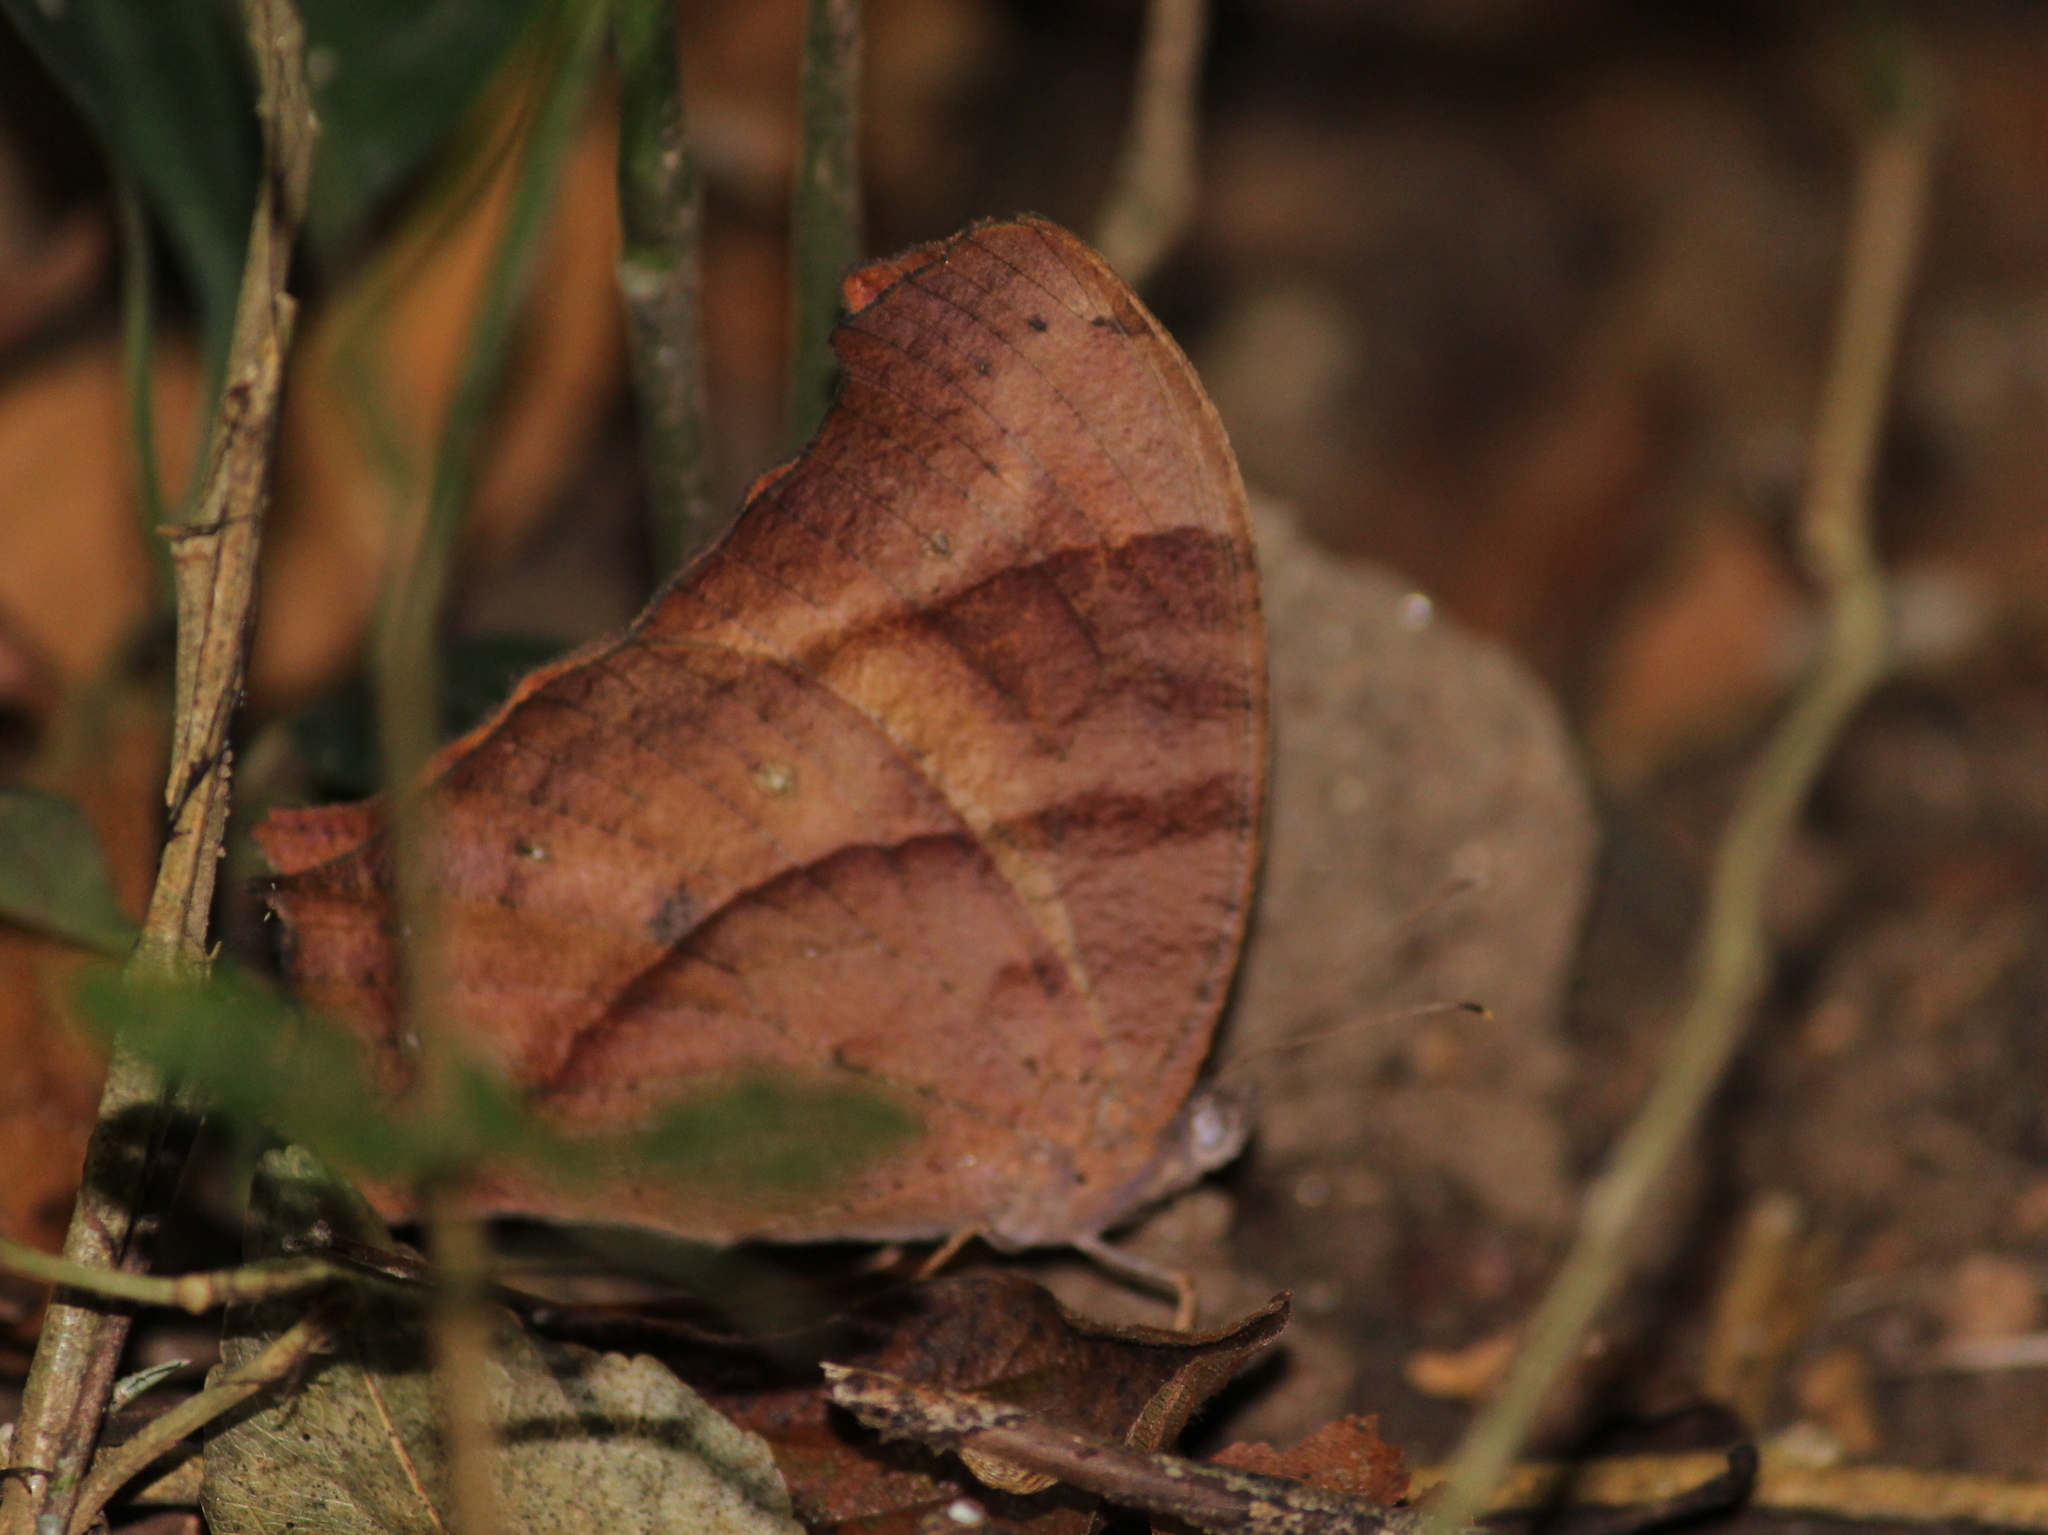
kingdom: Animalia
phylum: Arthropoda
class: Insecta
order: Lepidoptera
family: Nymphalidae
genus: Melanitis
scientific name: Melanitis leda
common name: Twilight brown
